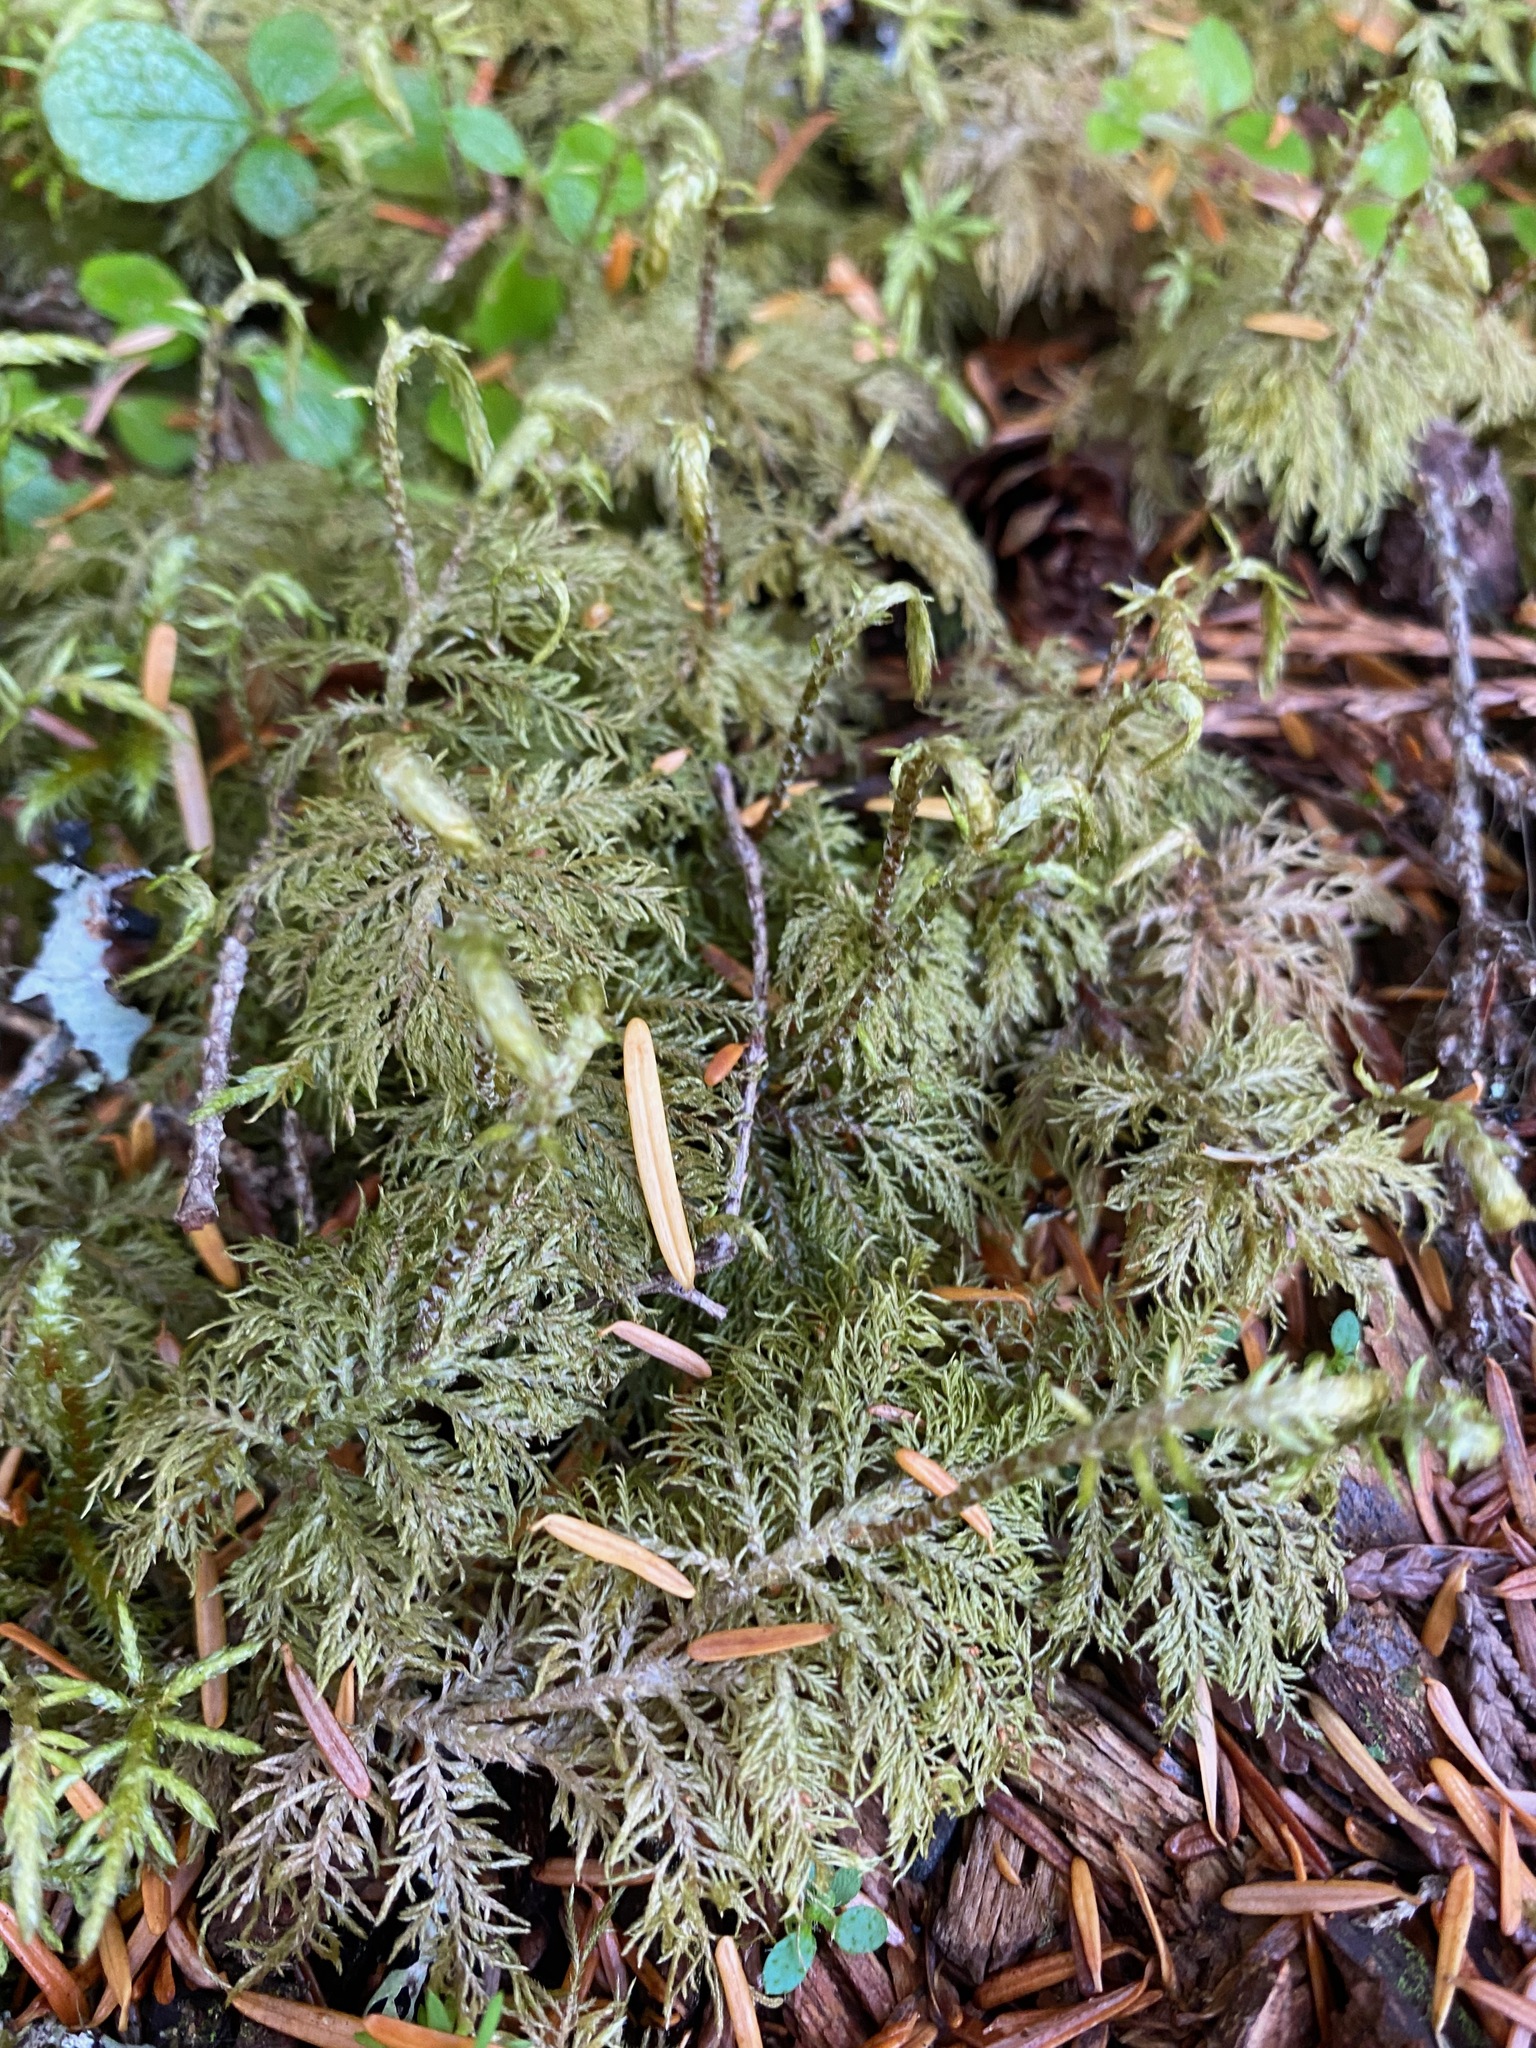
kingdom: Plantae
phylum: Bryophyta
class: Bryopsida
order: Hypnales
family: Hylocomiaceae
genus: Hylocomium
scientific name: Hylocomium splendens
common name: Stairstep moss
